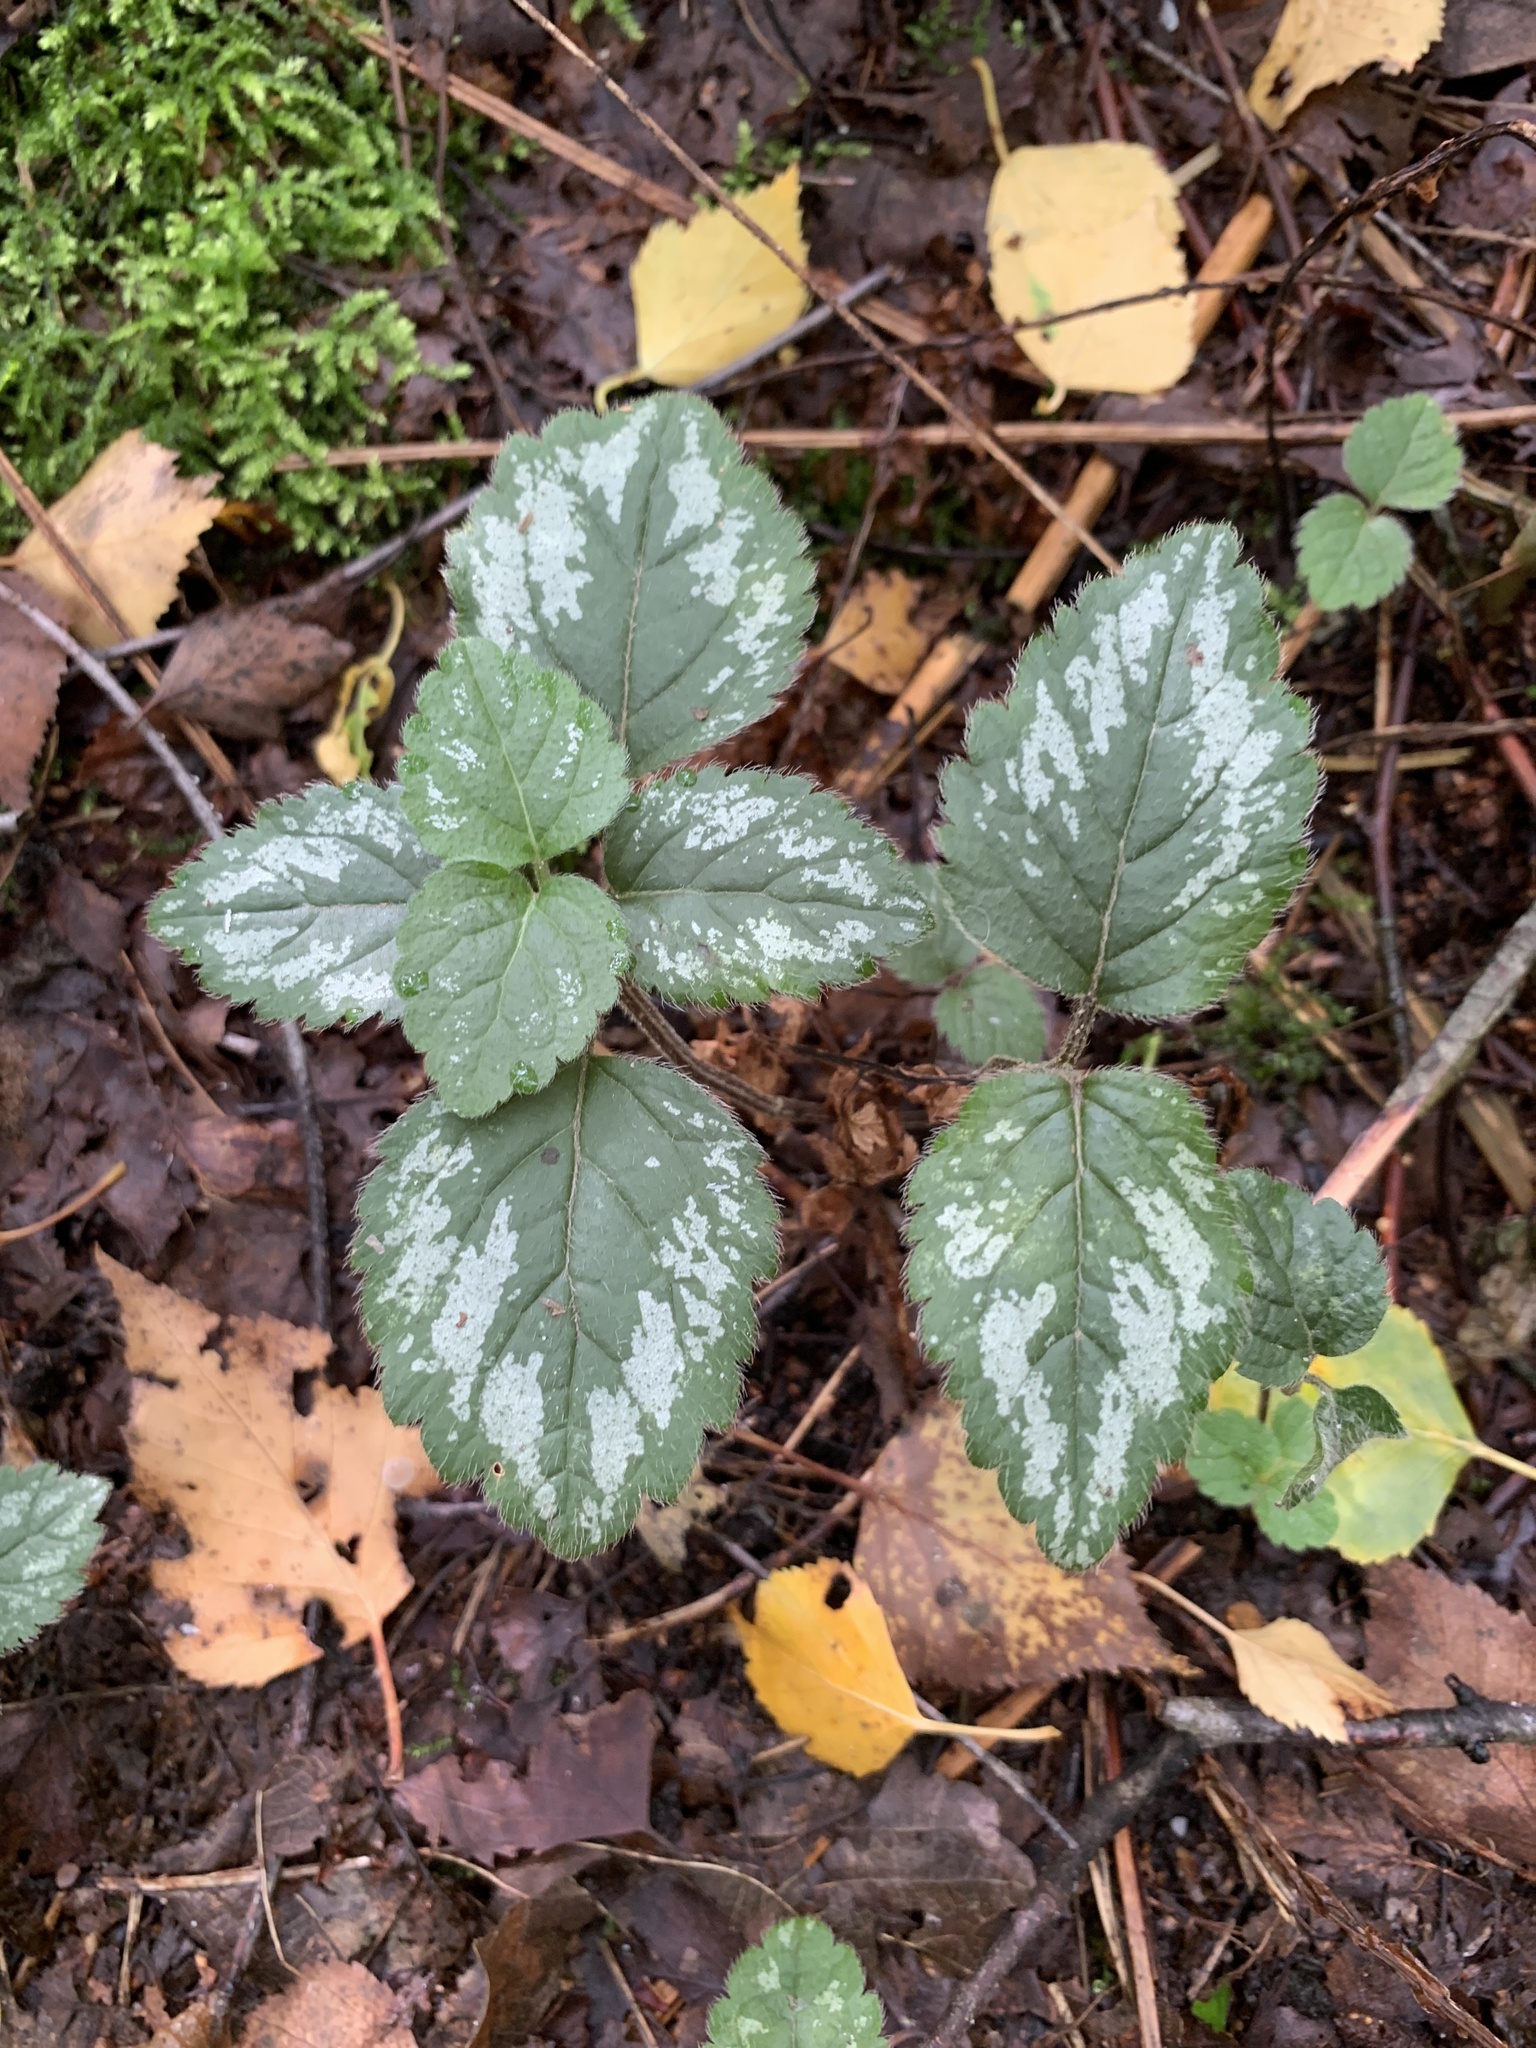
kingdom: Plantae
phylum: Tracheophyta
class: Magnoliopsida
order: Lamiales
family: Lamiaceae
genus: Lamium
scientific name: Lamium galeobdolon
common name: Yellow archangel
